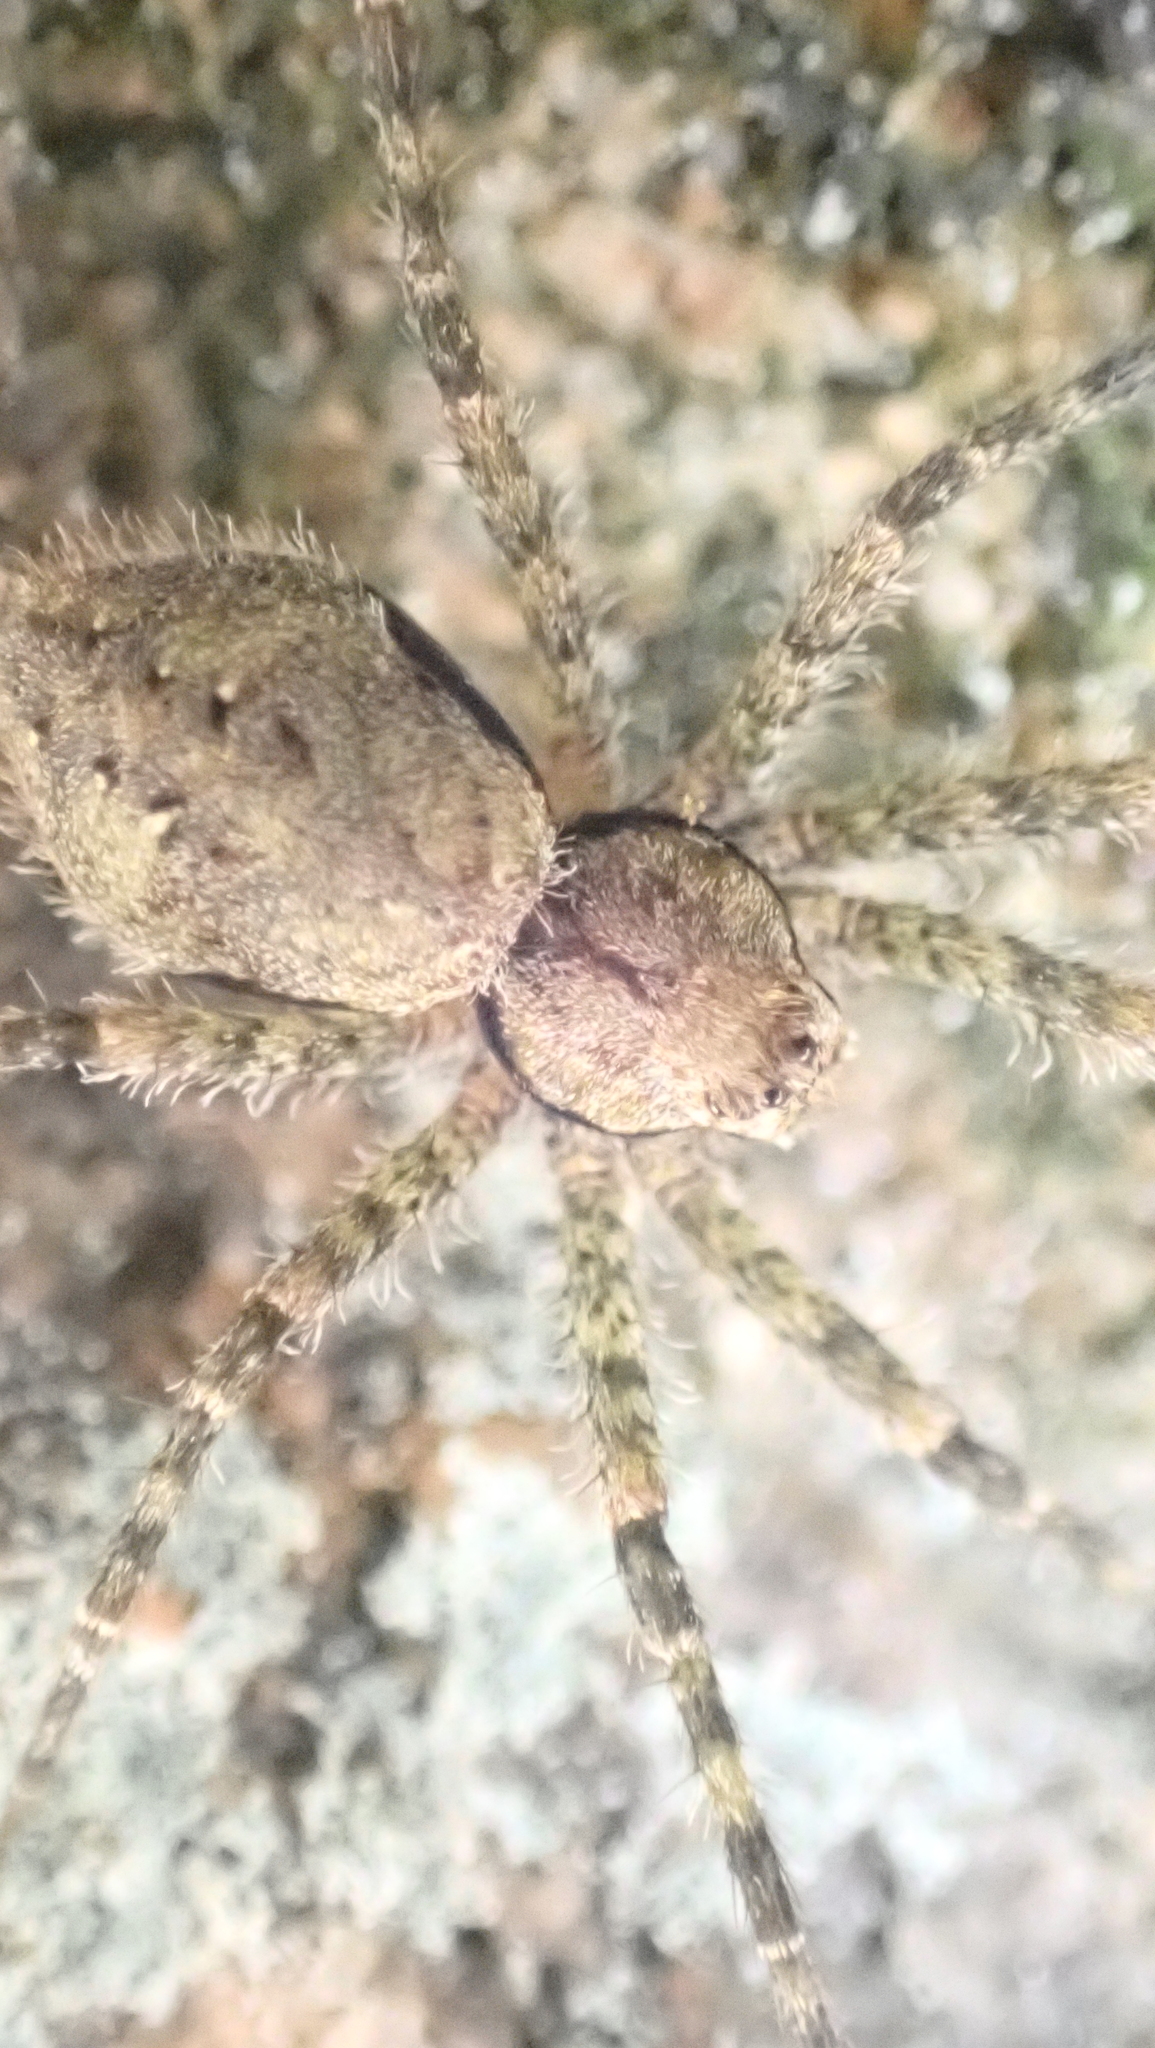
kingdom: Animalia
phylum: Arthropoda
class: Arachnida
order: Araneae
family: Pisauridae
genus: Dolomedes
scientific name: Dolomedes albineus
